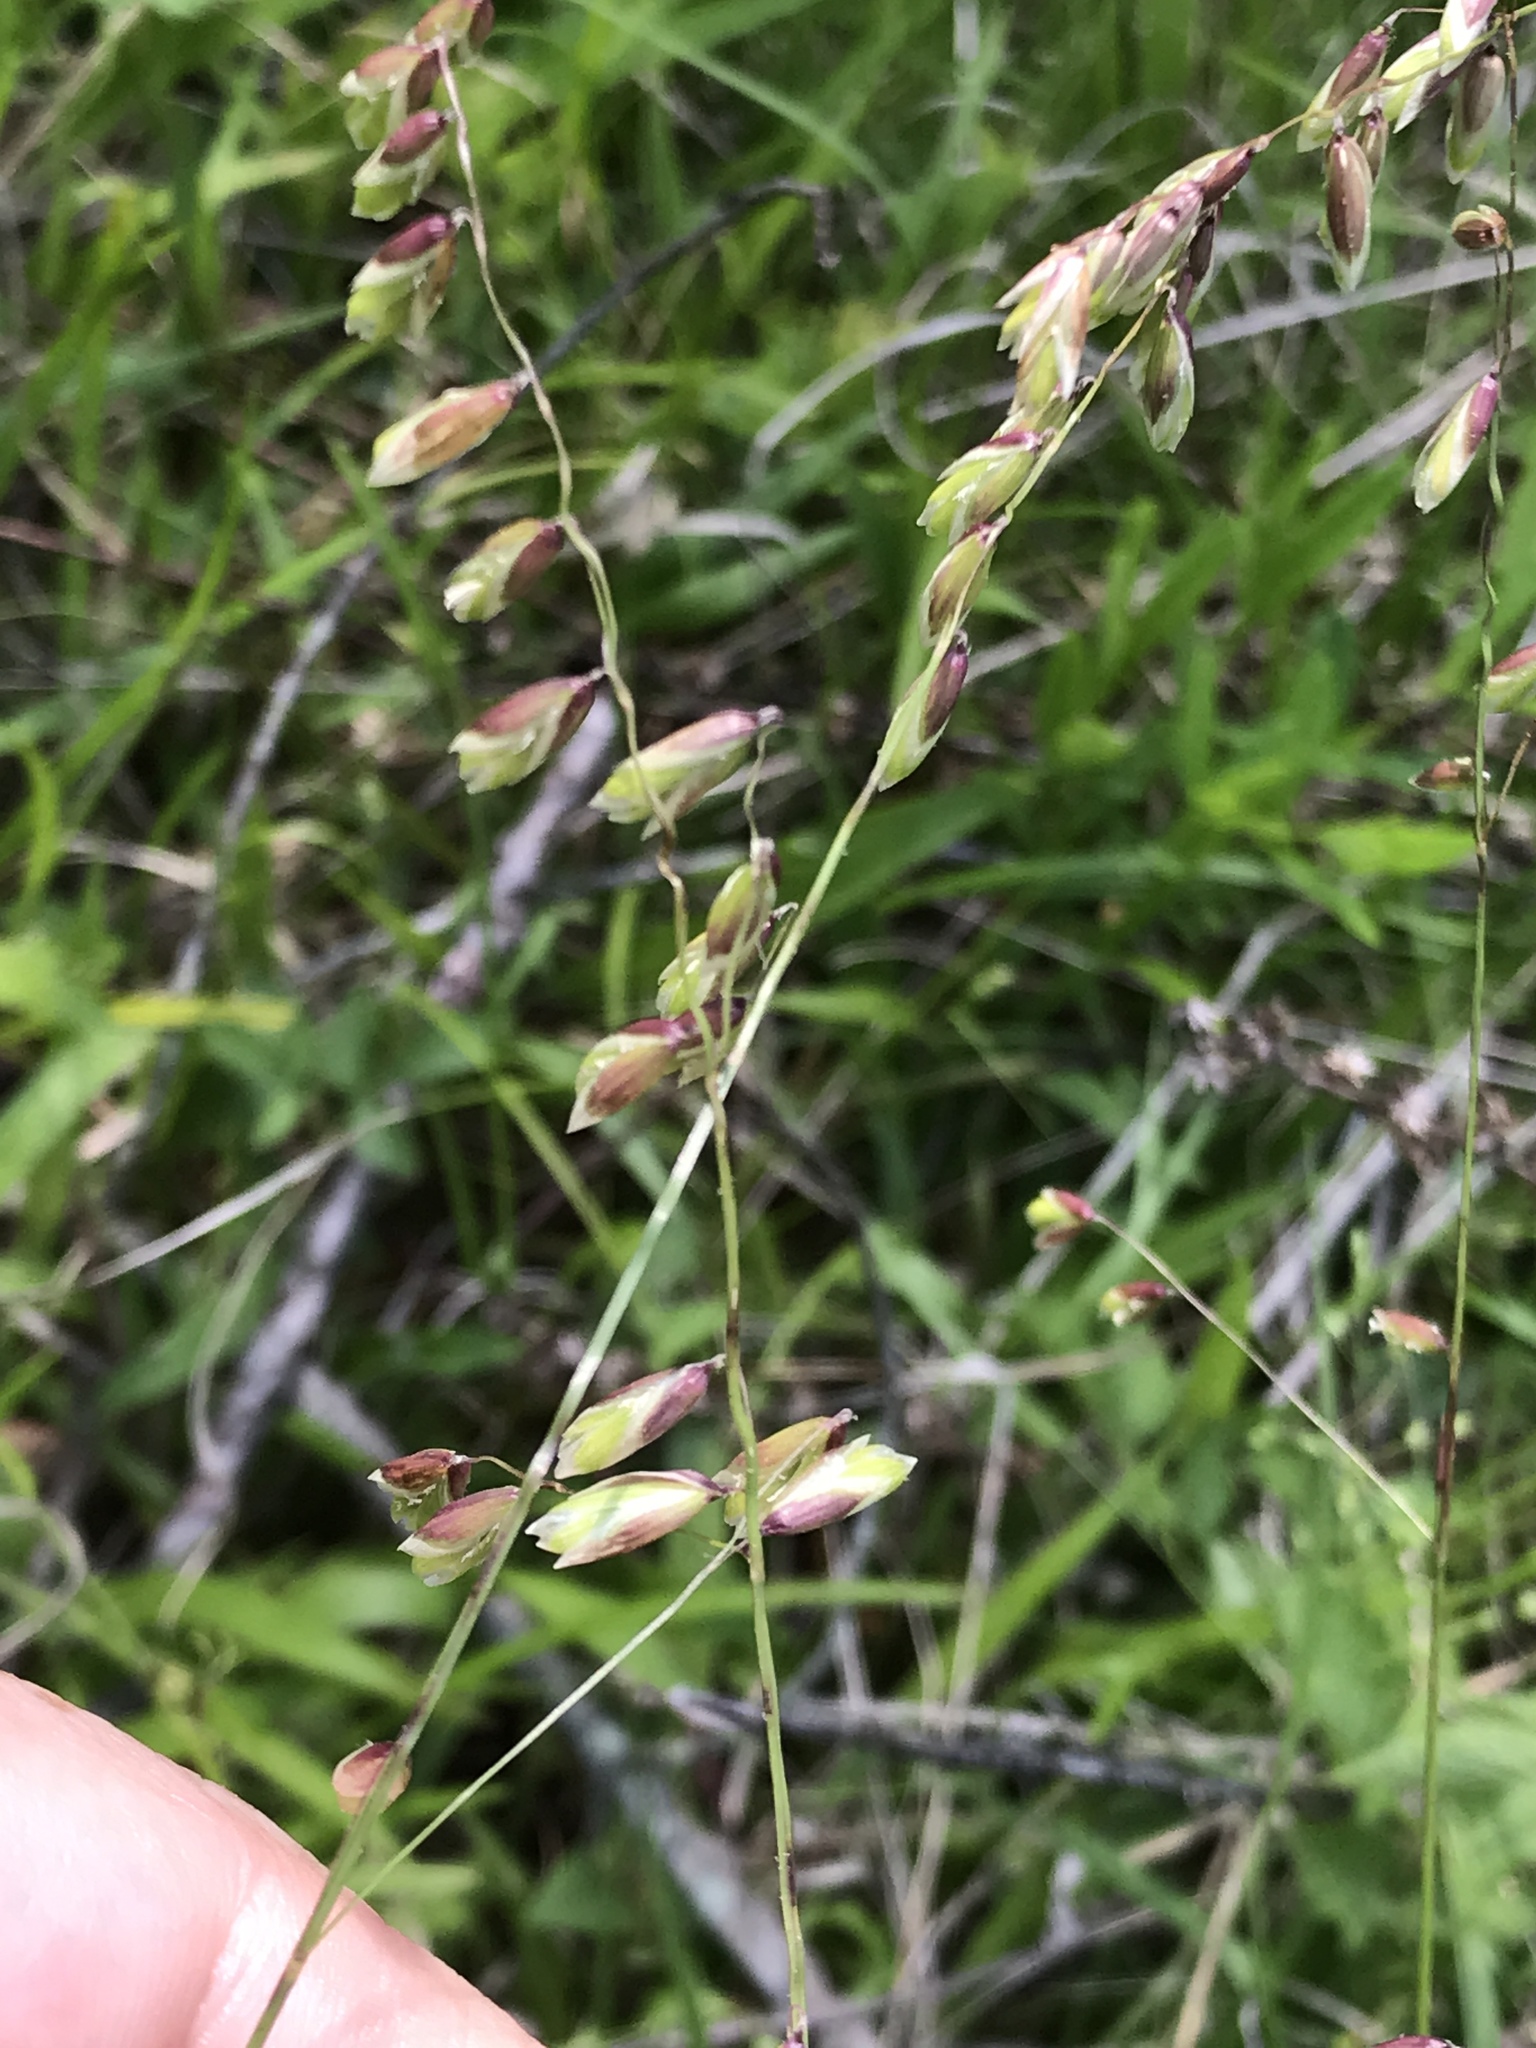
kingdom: Plantae
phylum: Tracheophyta
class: Liliopsida
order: Poales
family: Poaceae
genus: Melica
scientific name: Melica mutica
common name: Two-flower melic
